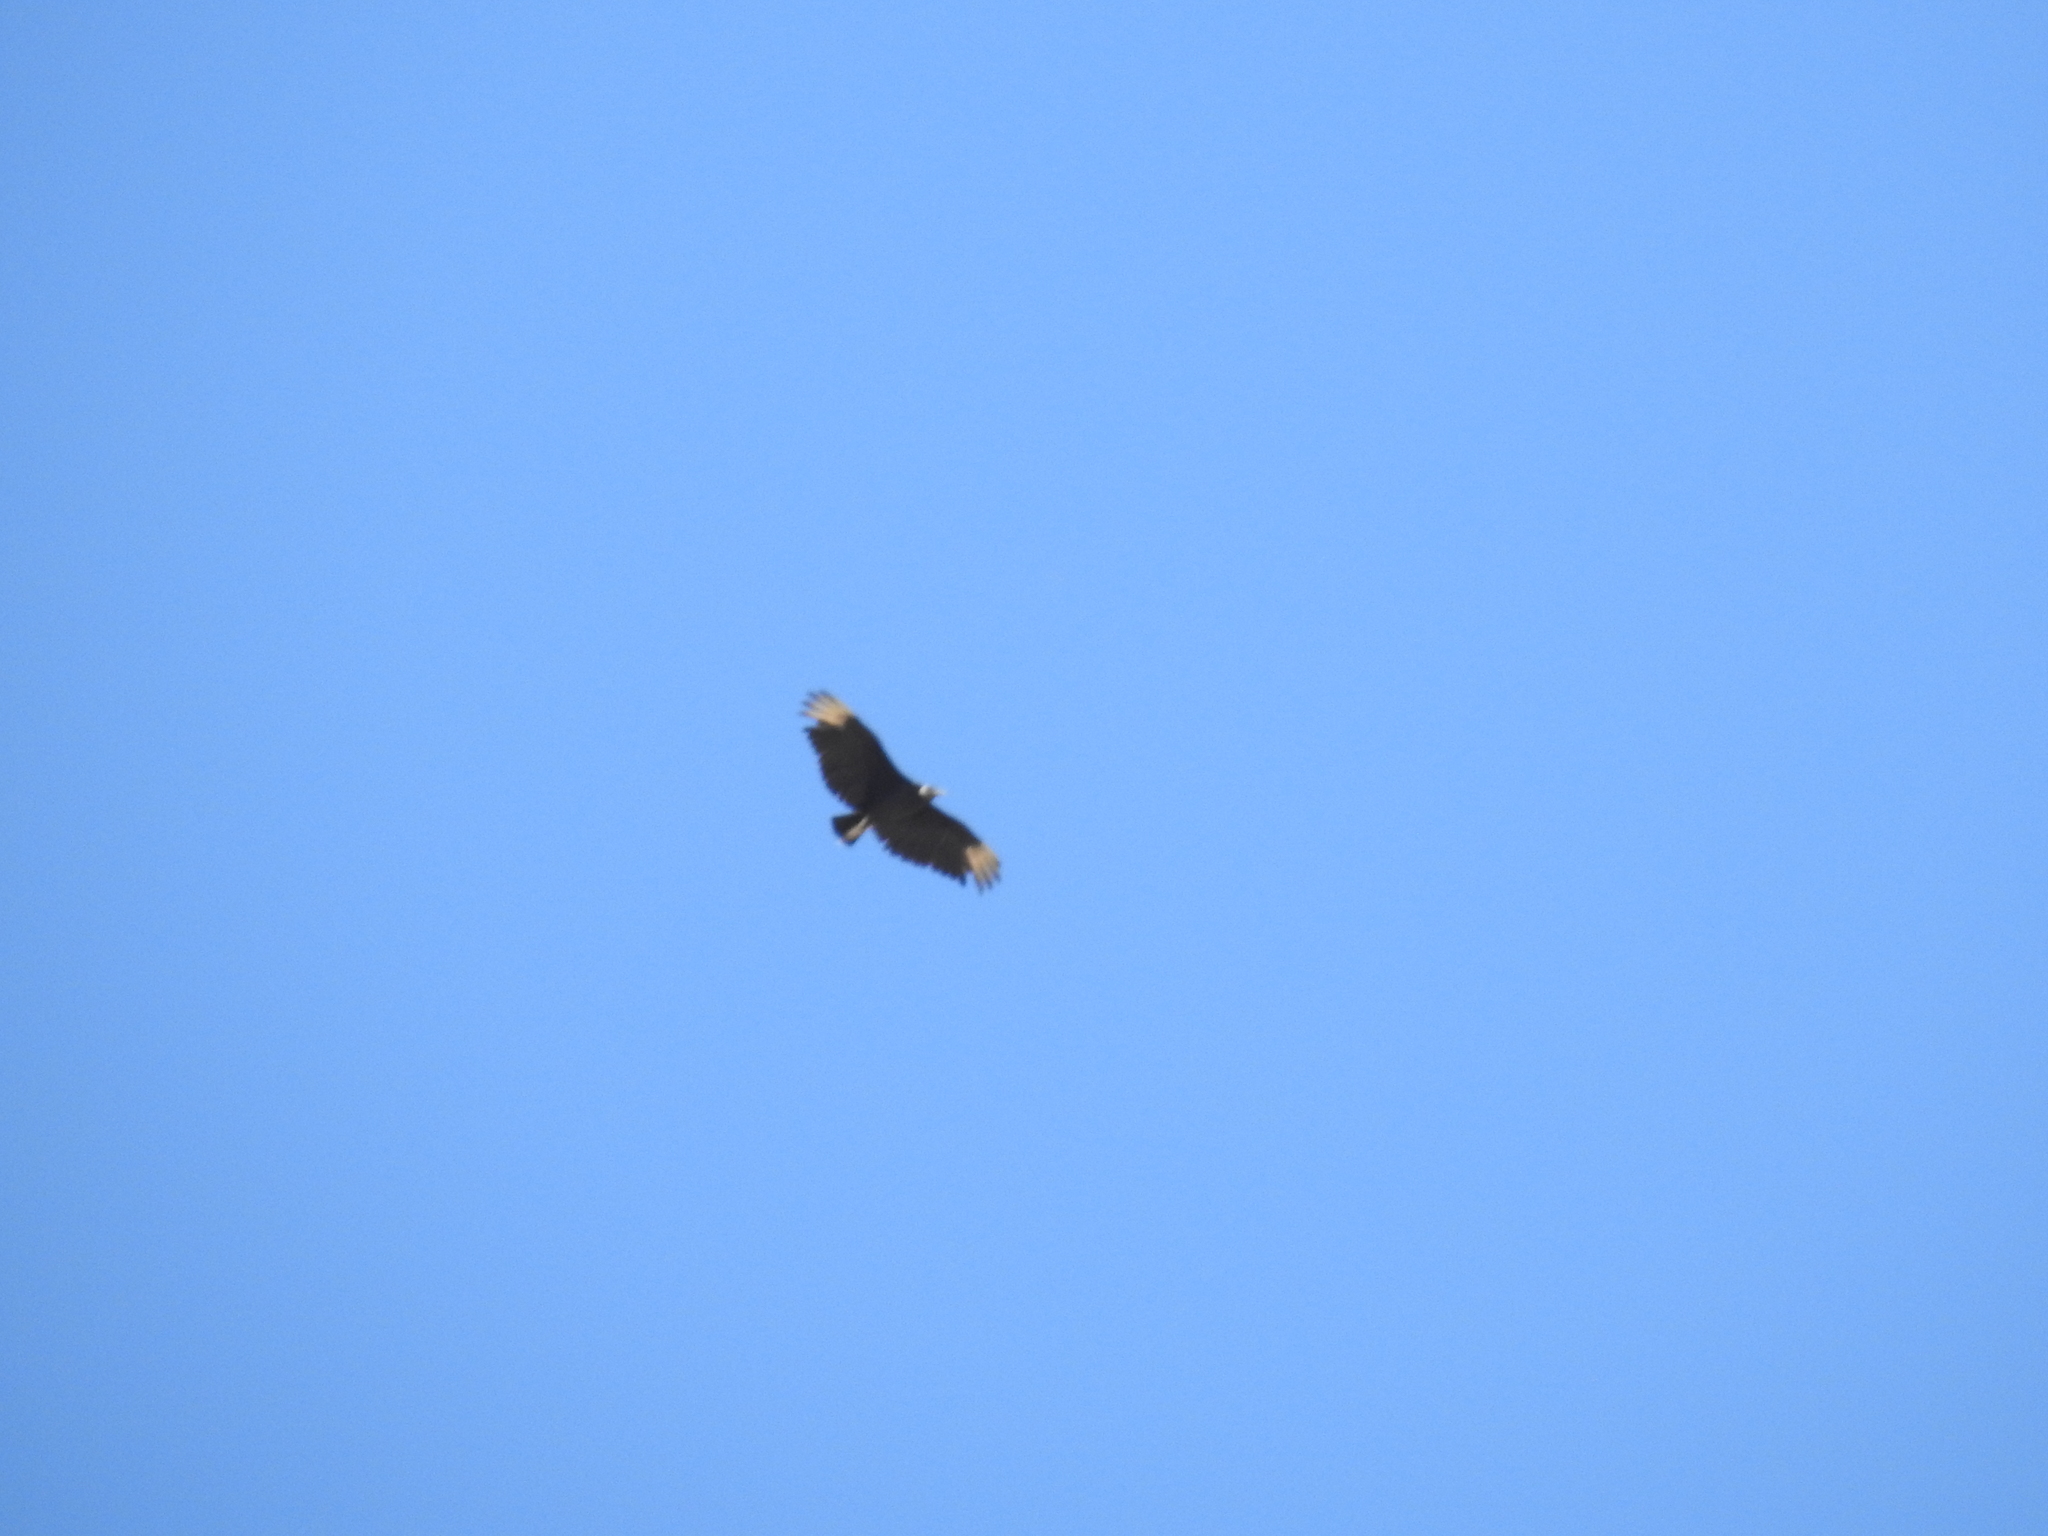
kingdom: Animalia
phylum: Chordata
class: Aves
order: Accipitriformes
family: Cathartidae
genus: Coragyps
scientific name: Coragyps atratus
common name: Black vulture
